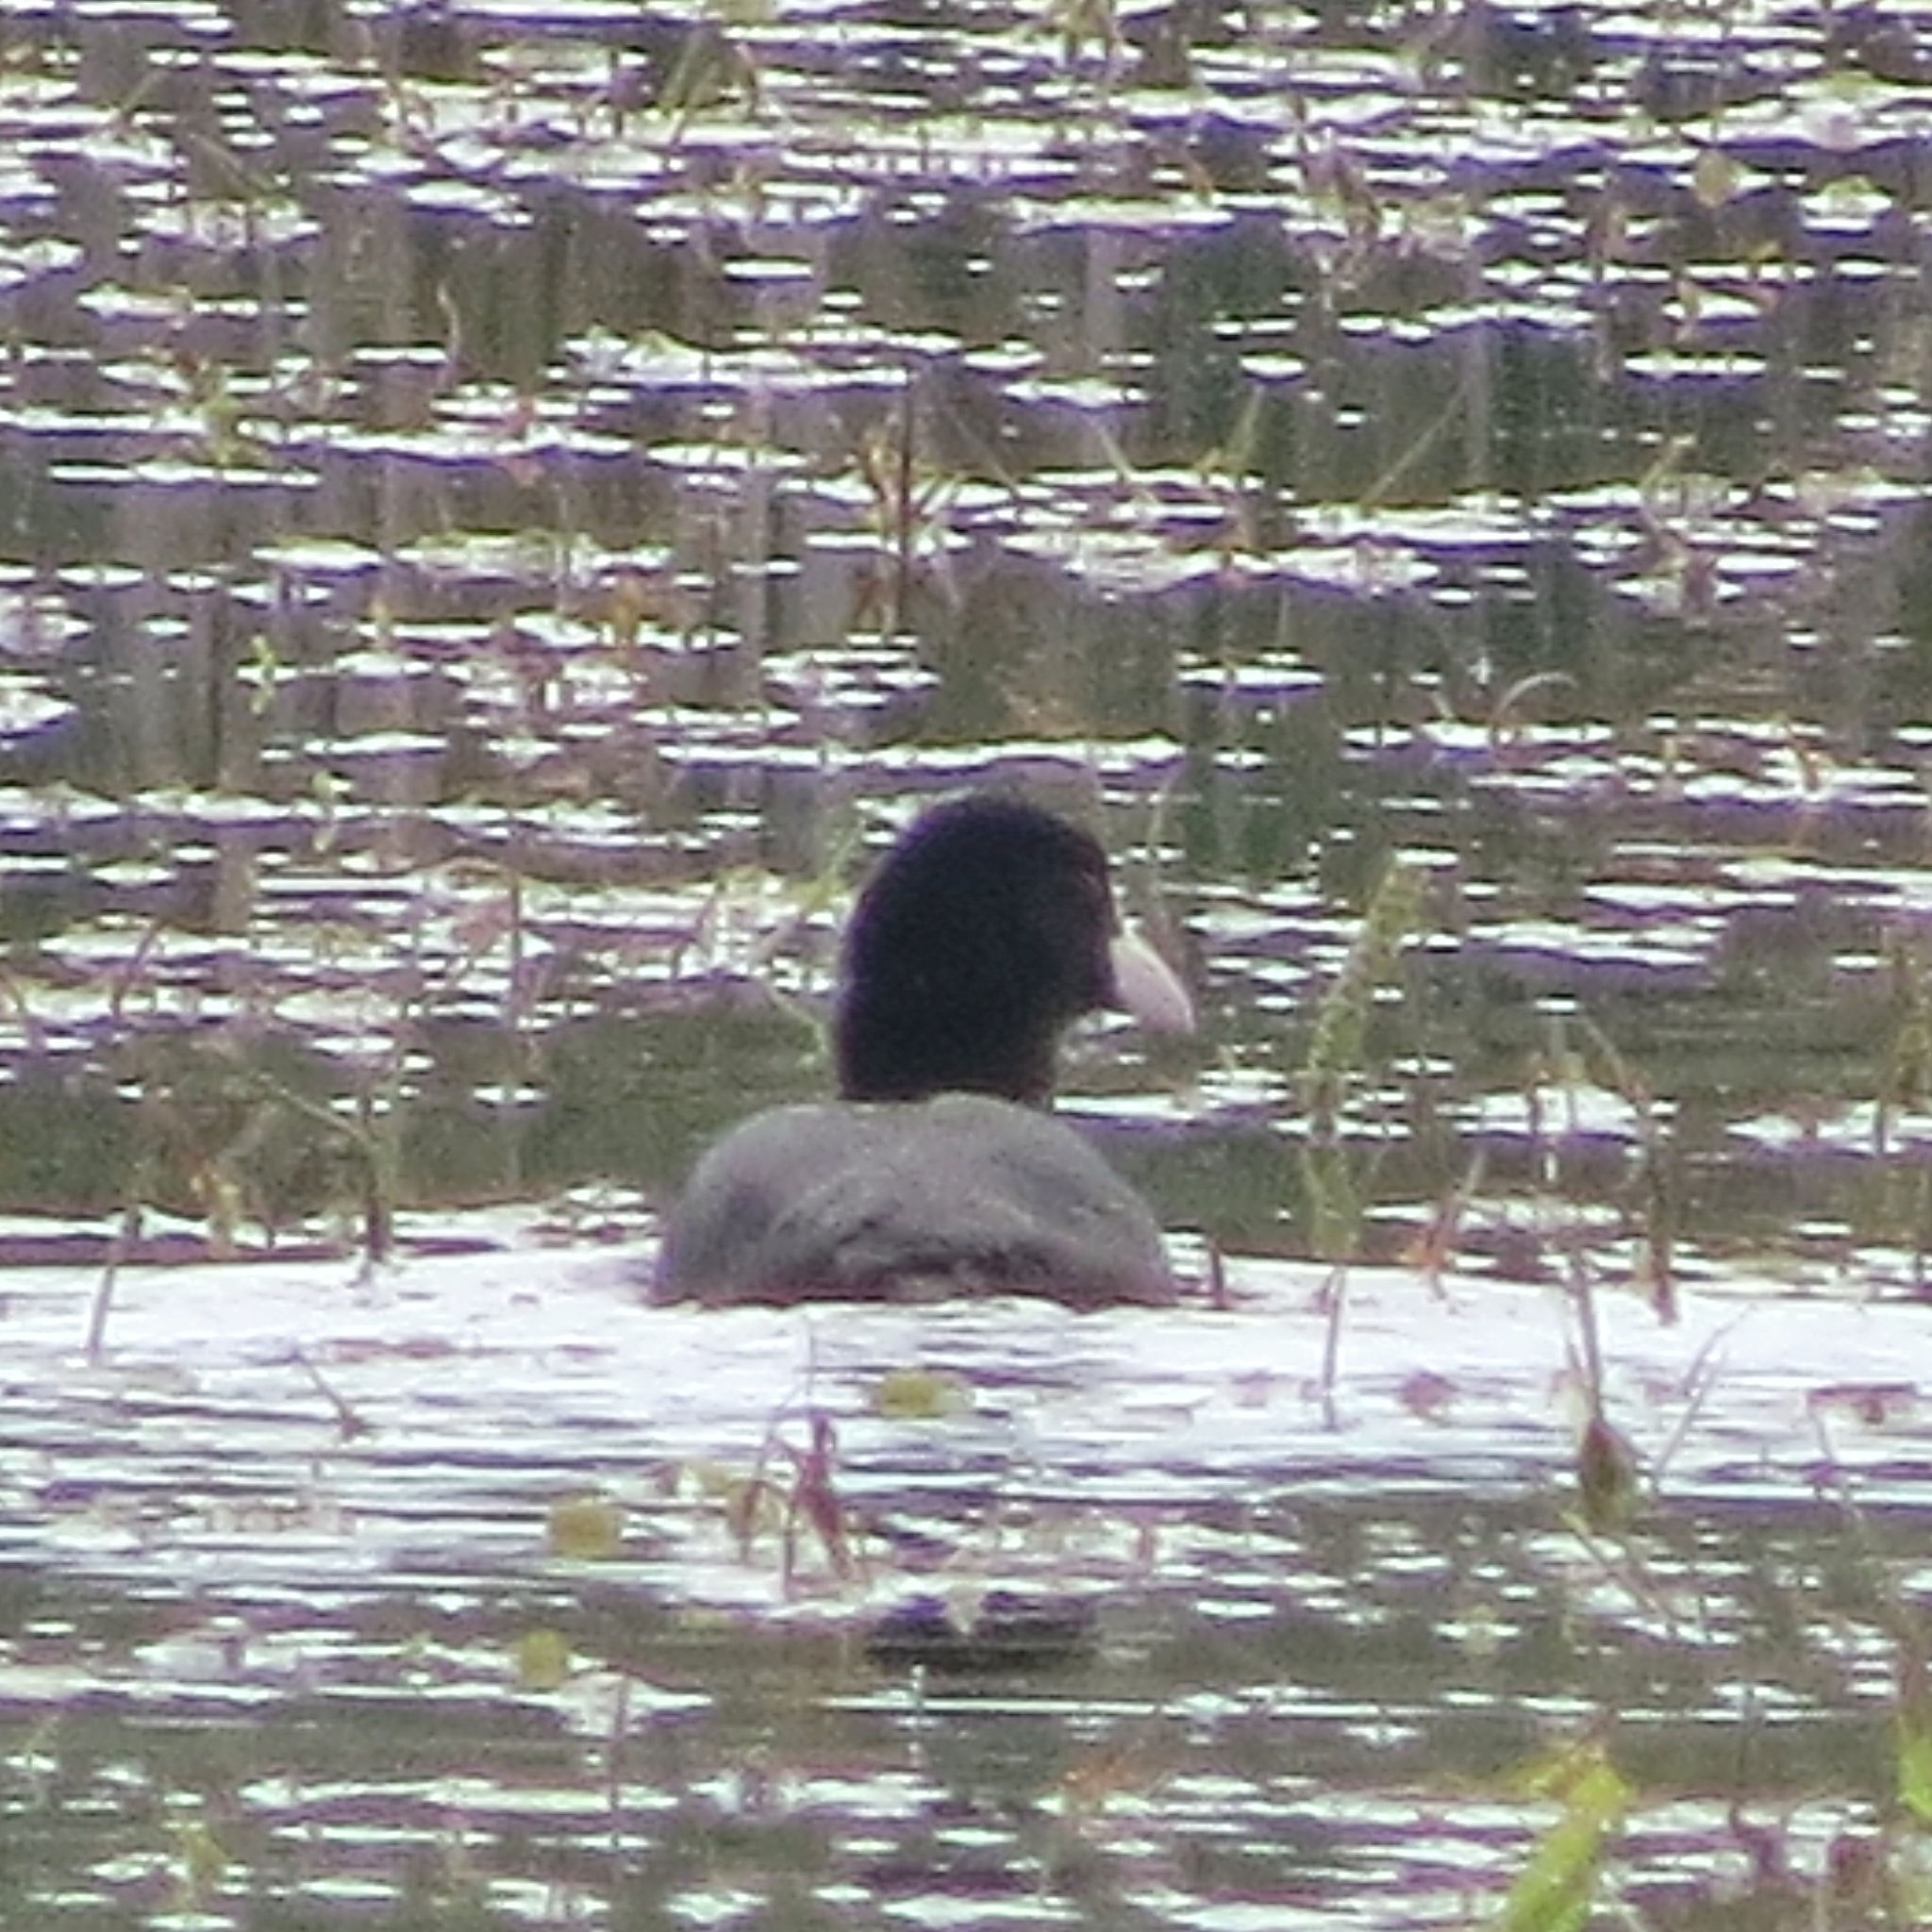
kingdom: Animalia
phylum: Chordata
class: Aves
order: Gruiformes
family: Rallidae
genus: Fulica
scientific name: Fulica atra
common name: Eurasian coot
